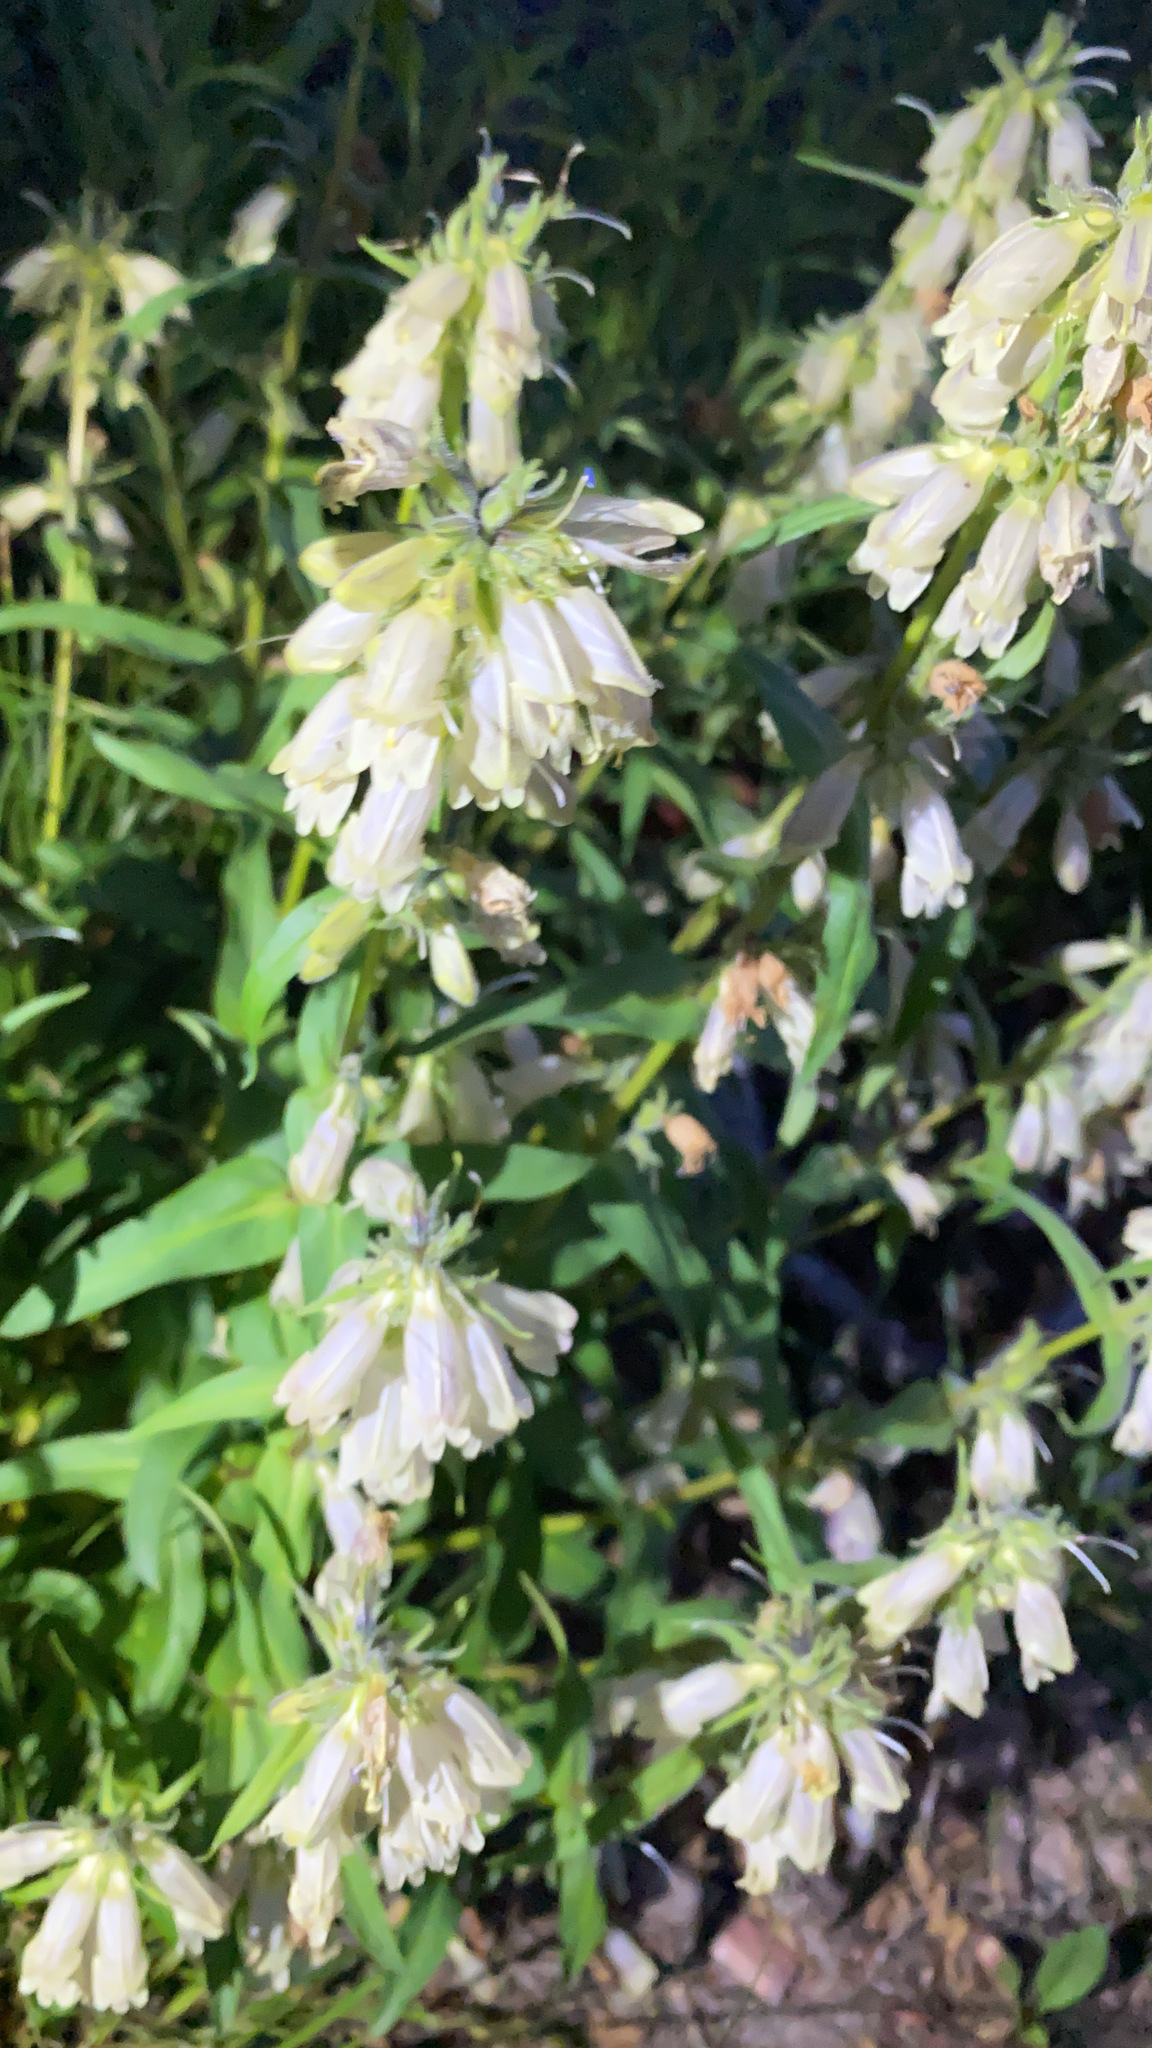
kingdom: Plantae
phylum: Tracheophyta
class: Magnoliopsida
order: Lamiales
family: Plantaginaceae
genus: Penstemon
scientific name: Penstemon whippleanus
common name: Whipple's penstemon
